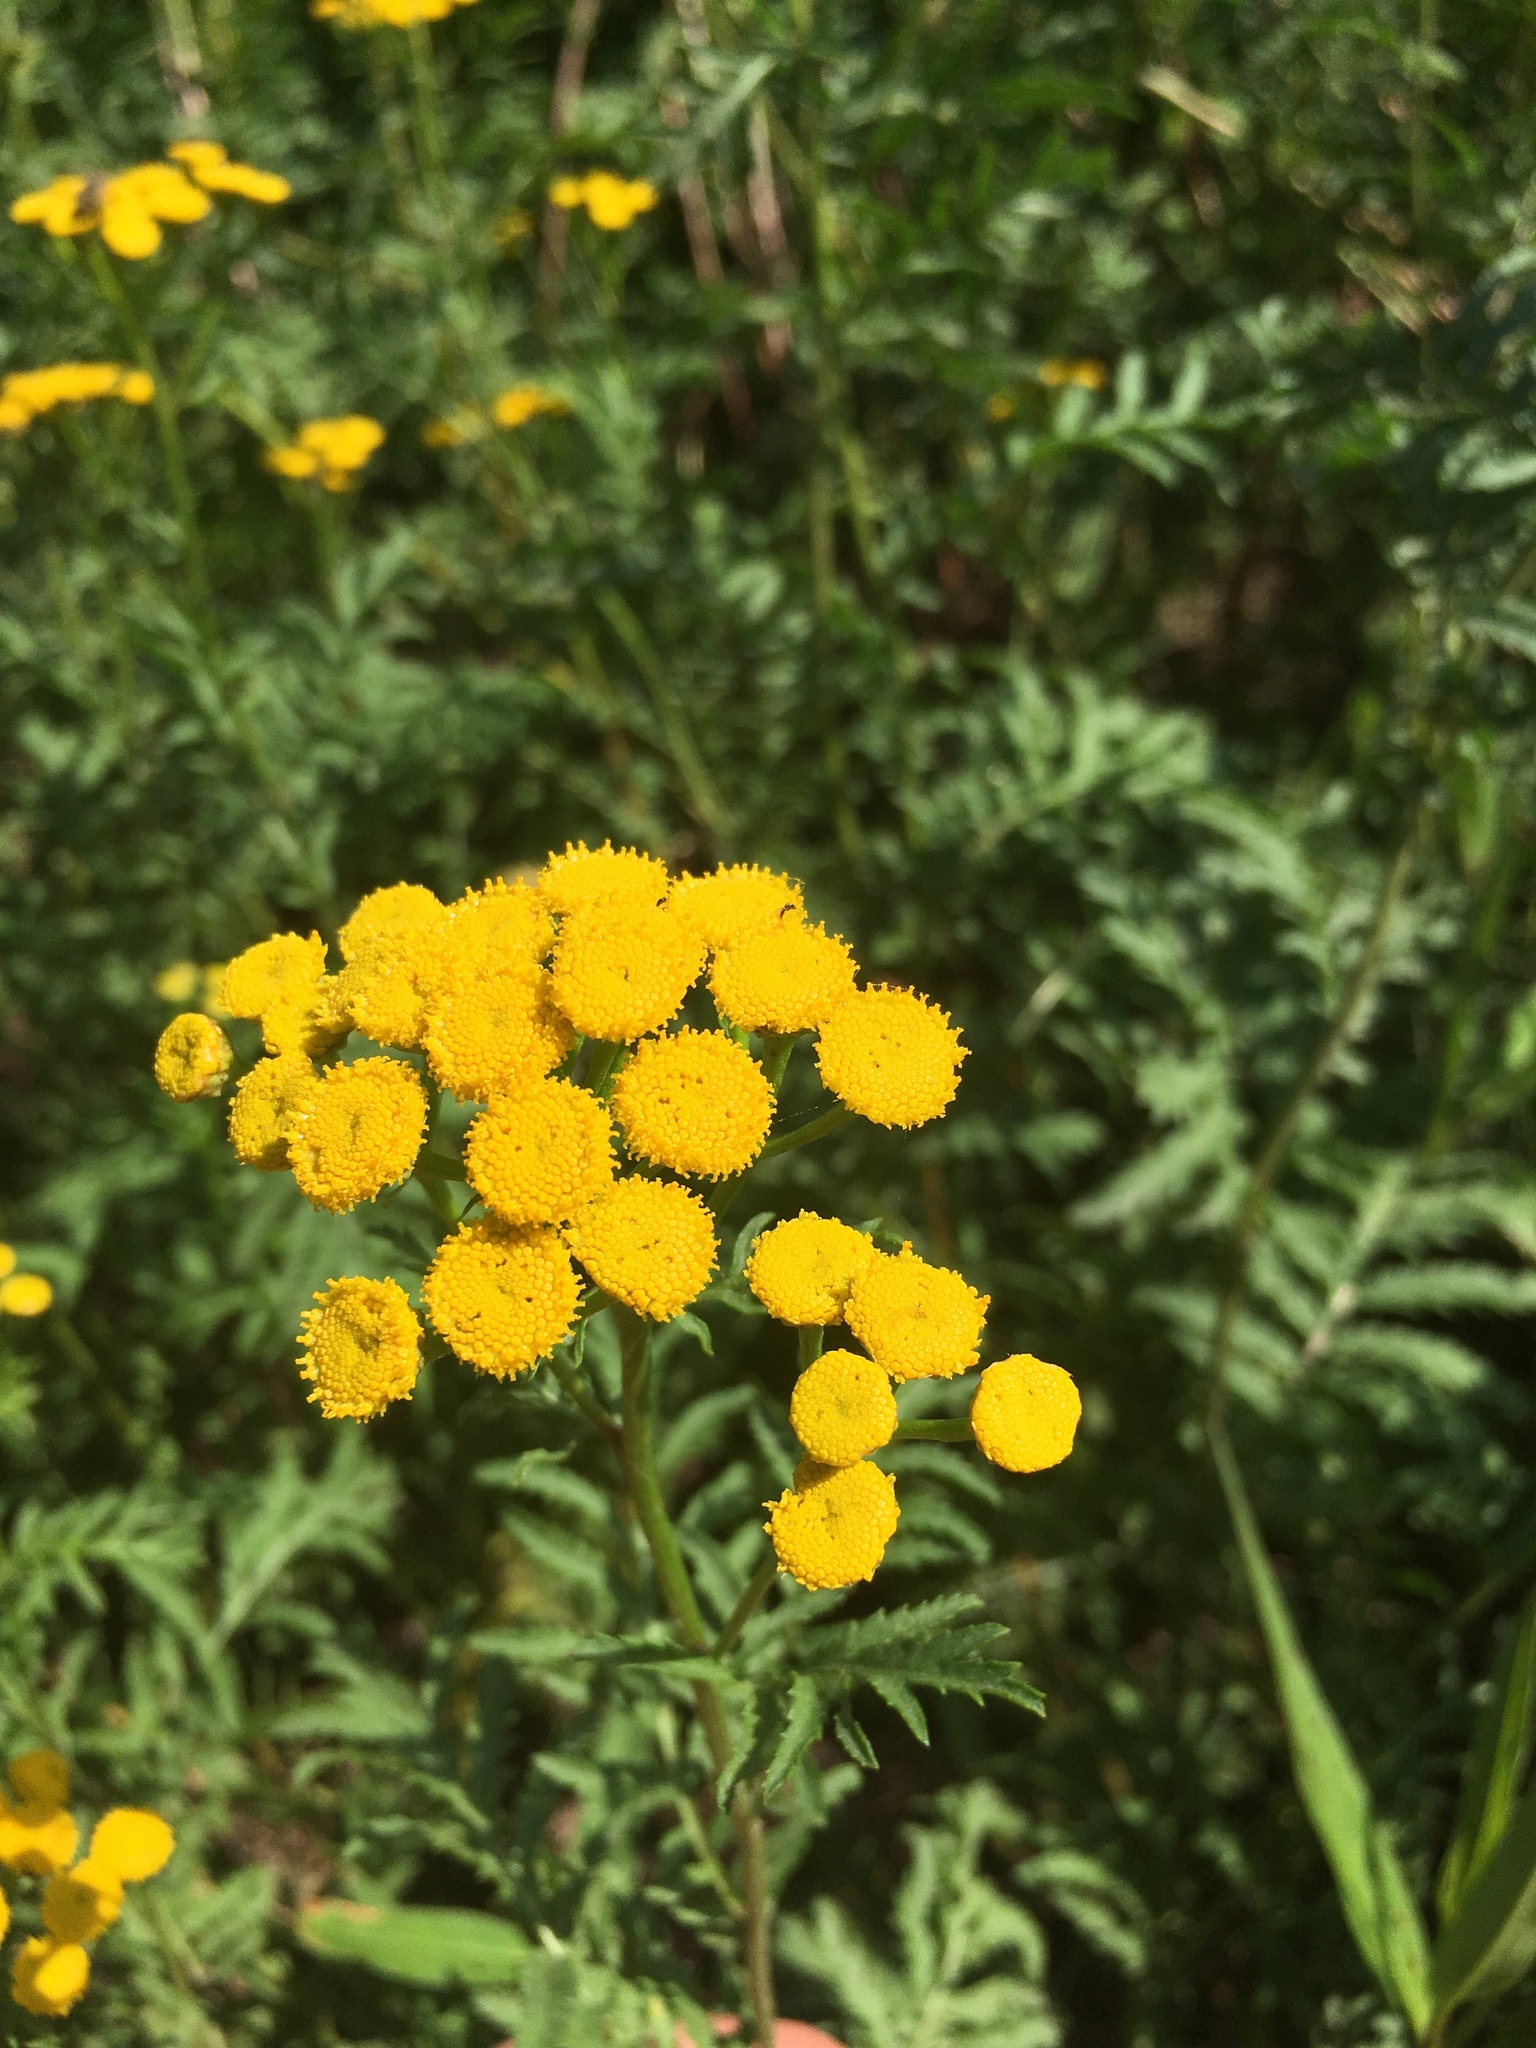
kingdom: Plantae
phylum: Tracheophyta
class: Magnoliopsida
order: Asterales
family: Asteraceae
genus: Tanacetum
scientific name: Tanacetum vulgare
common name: Common tansy
